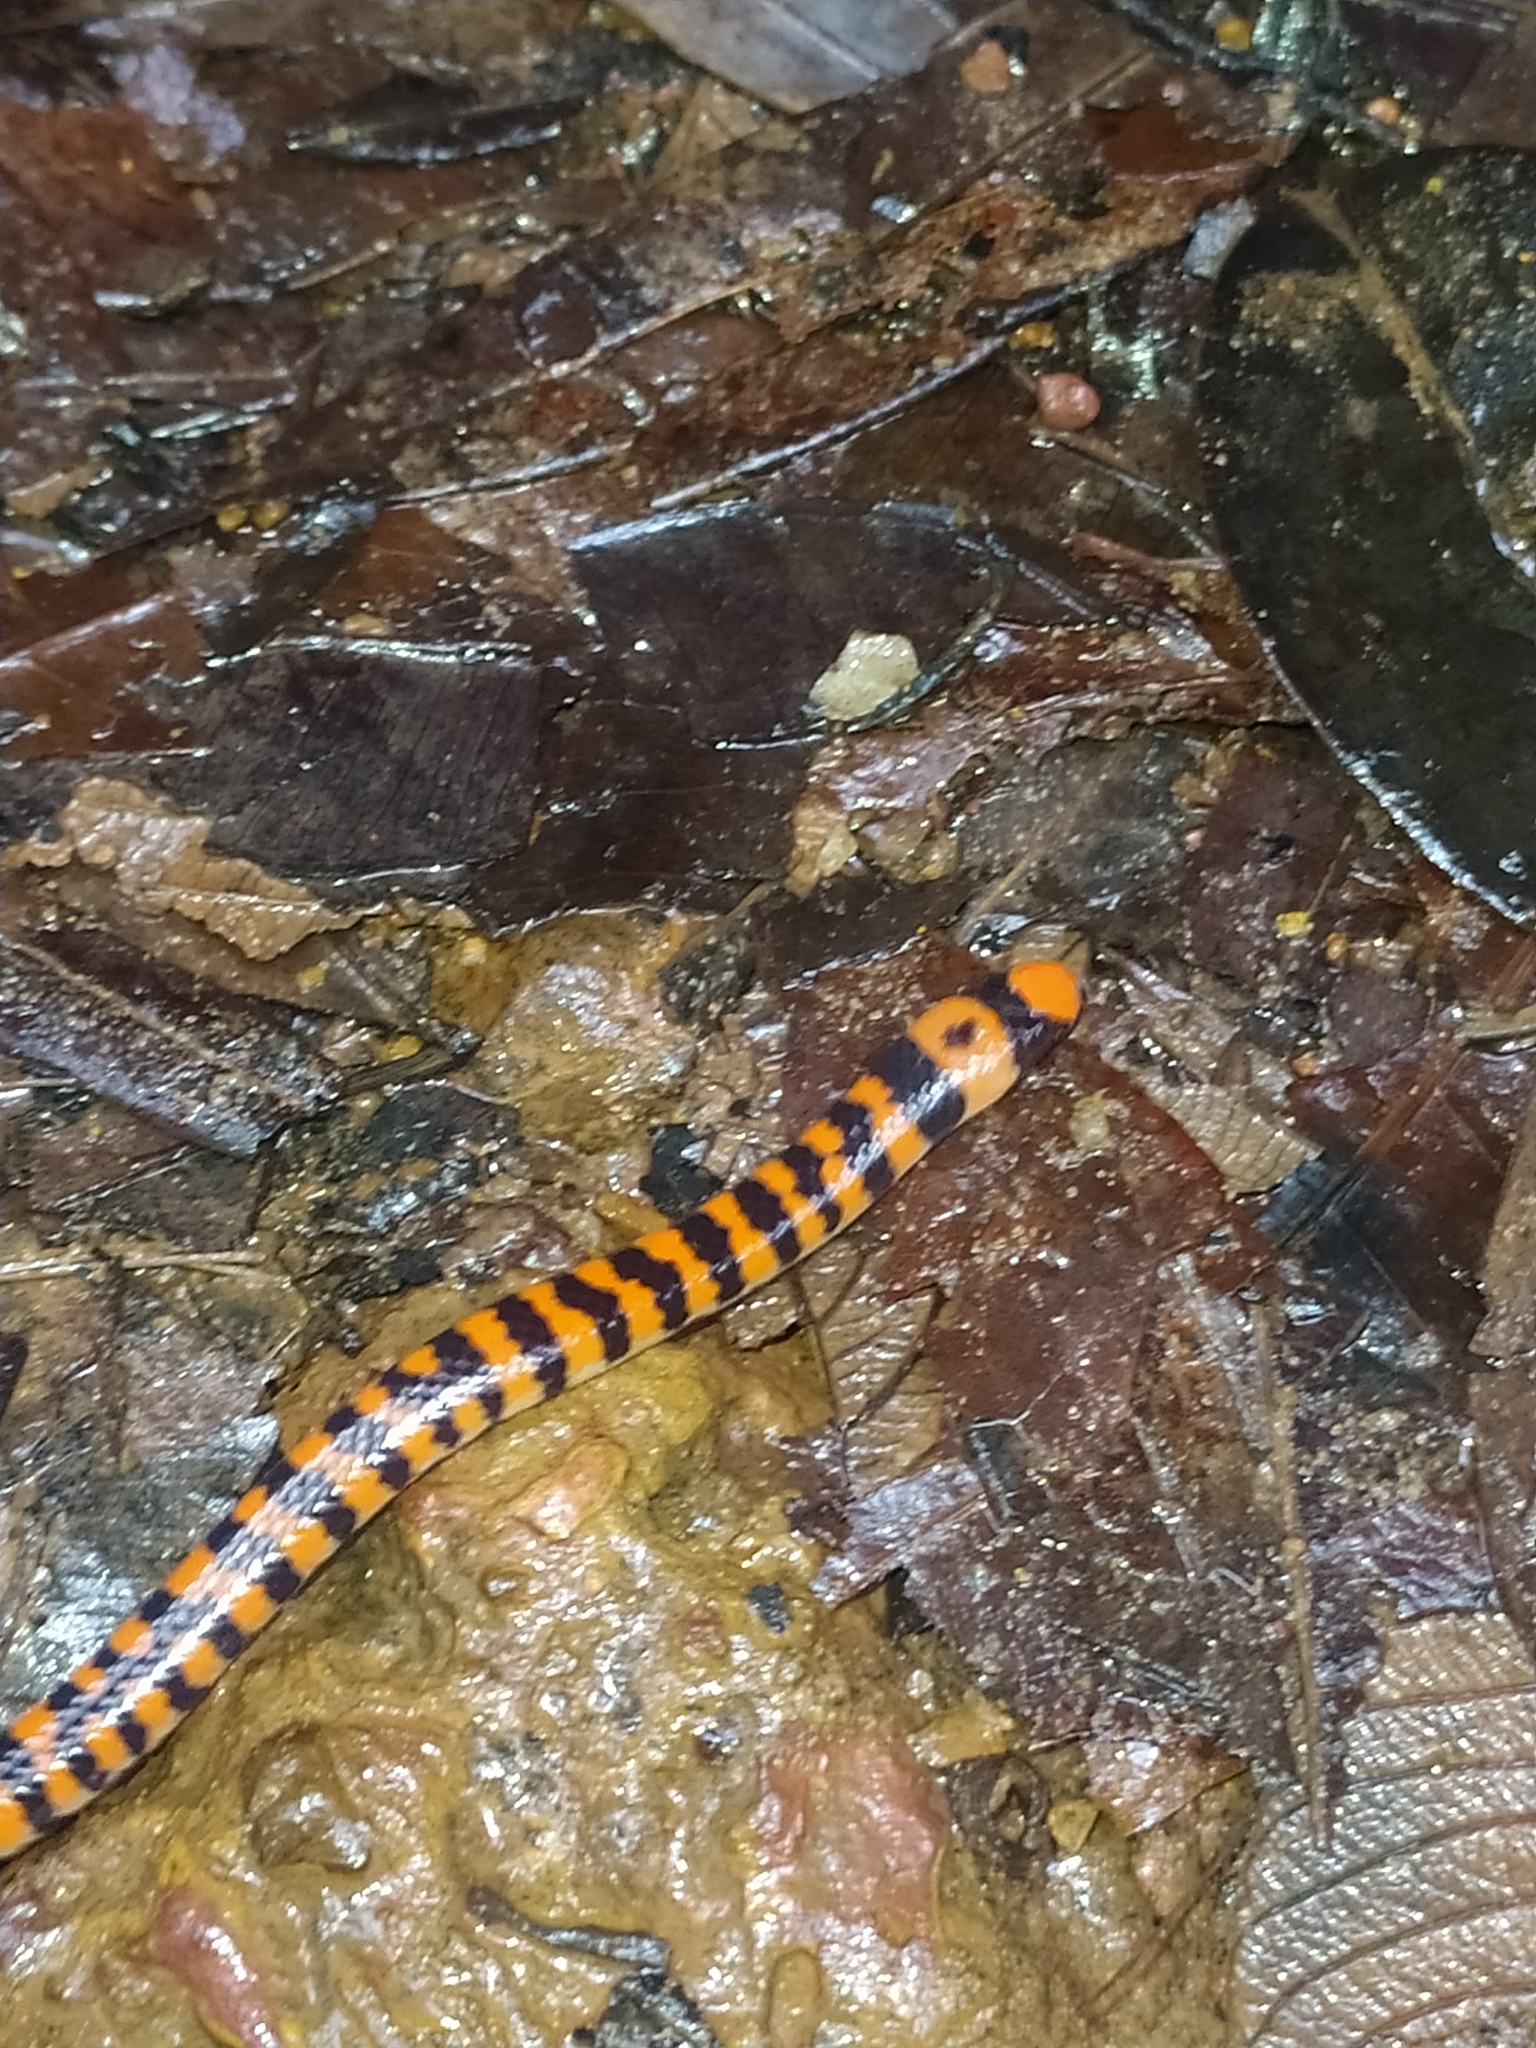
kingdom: Animalia
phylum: Chordata
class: Squamata
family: Aniliidae
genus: Anilius
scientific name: Anilius scytale
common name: Coral pipe snakes
